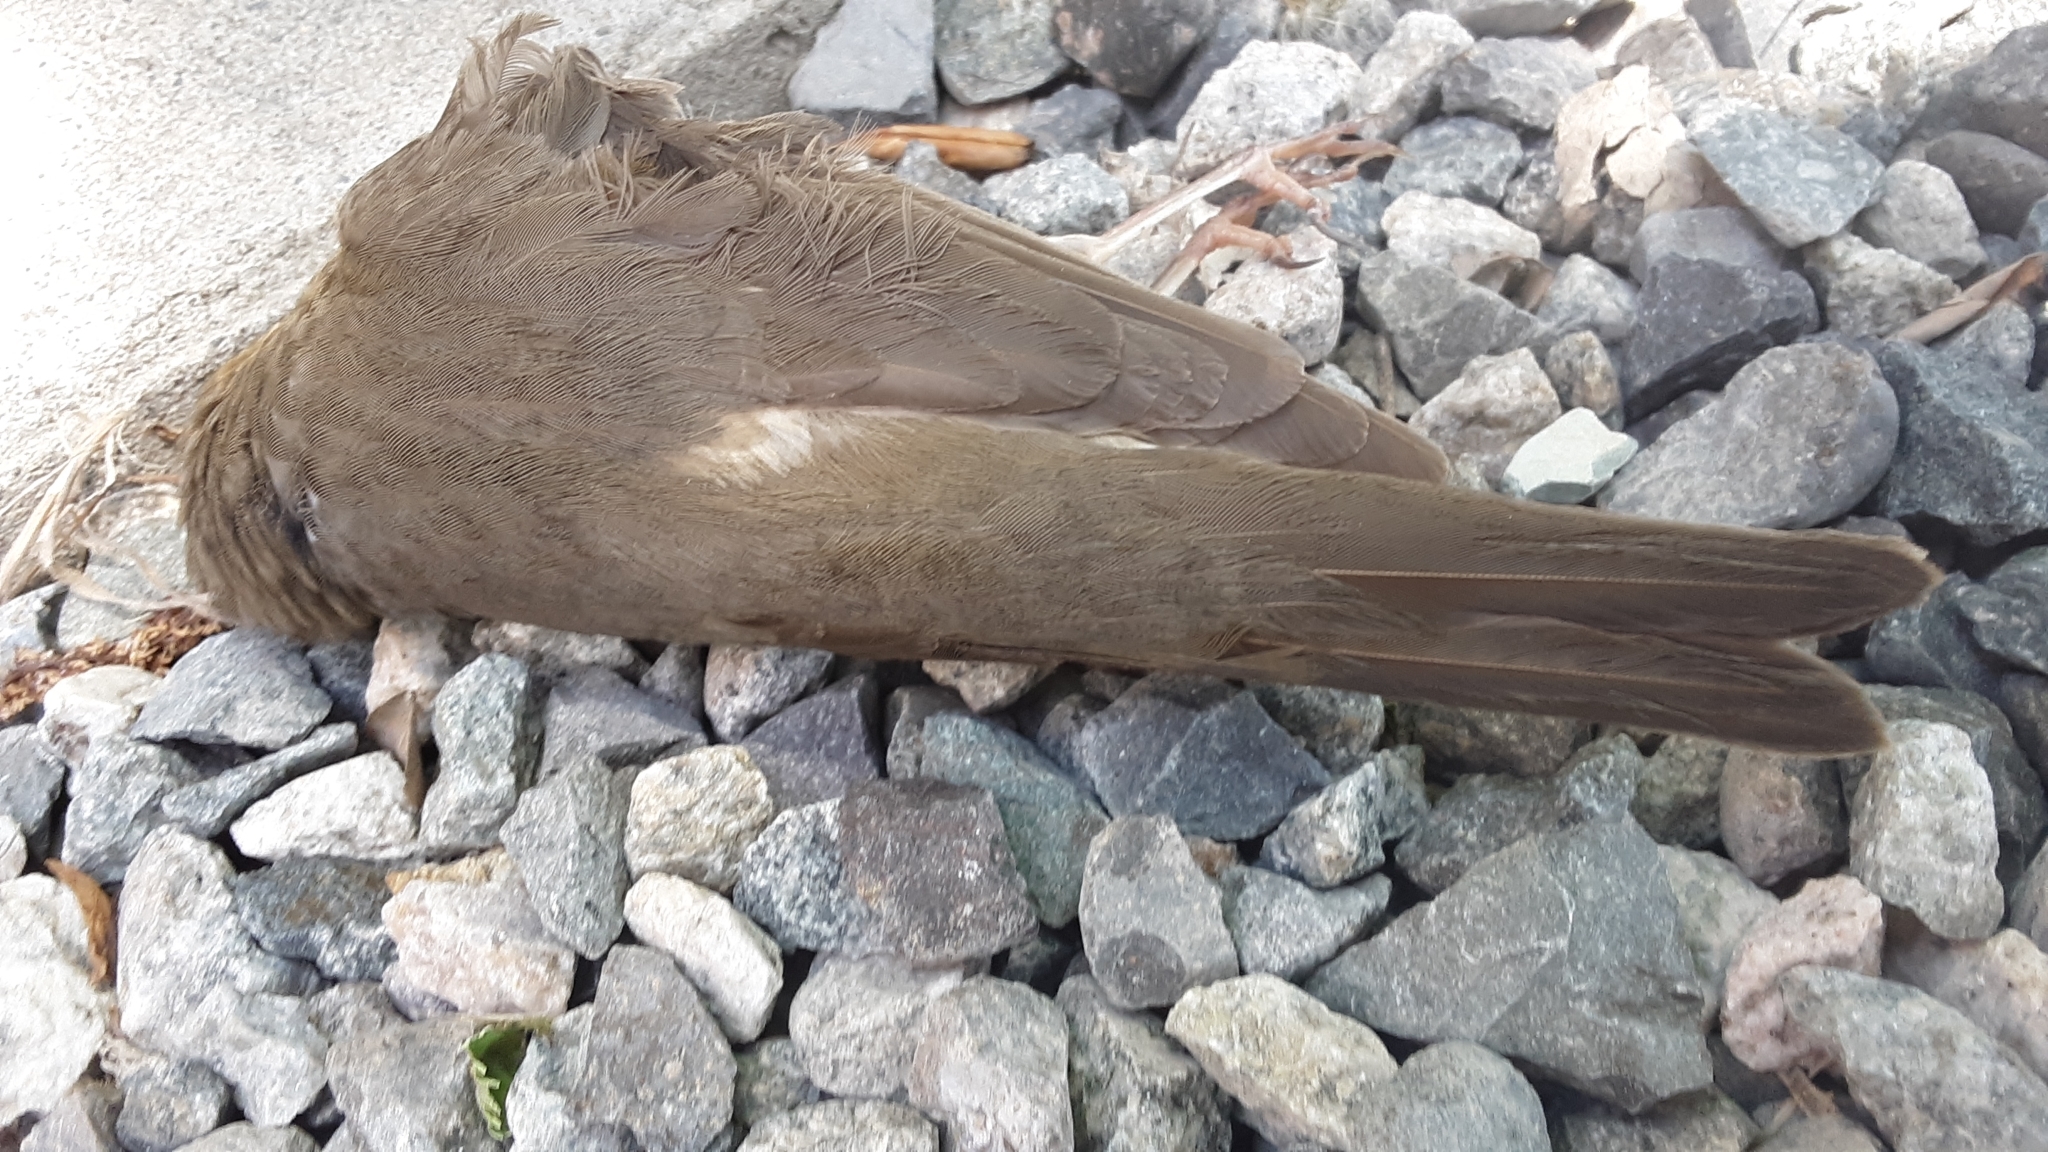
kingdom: Animalia
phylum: Chordata
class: Aves
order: Passeriformes
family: Turdidae
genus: Catharus
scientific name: Catharus ustulatus
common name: Swainson's thrush
